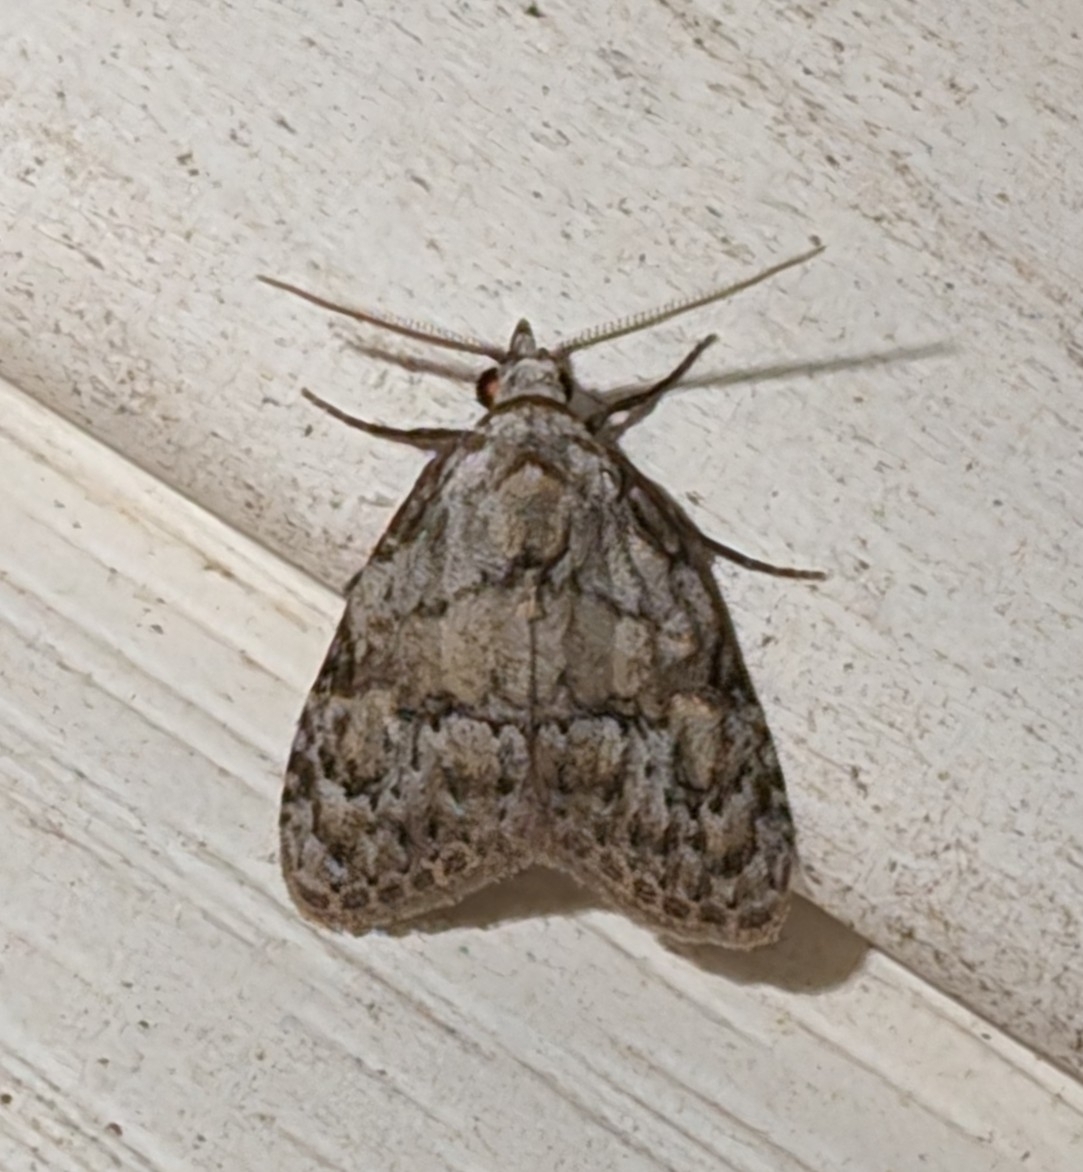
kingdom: Animalia
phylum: Arthropoda
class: Insecta
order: Lepidoptera
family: Nolidae
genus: Meganola
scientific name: Meganola minuscula
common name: Confused meganola moth
